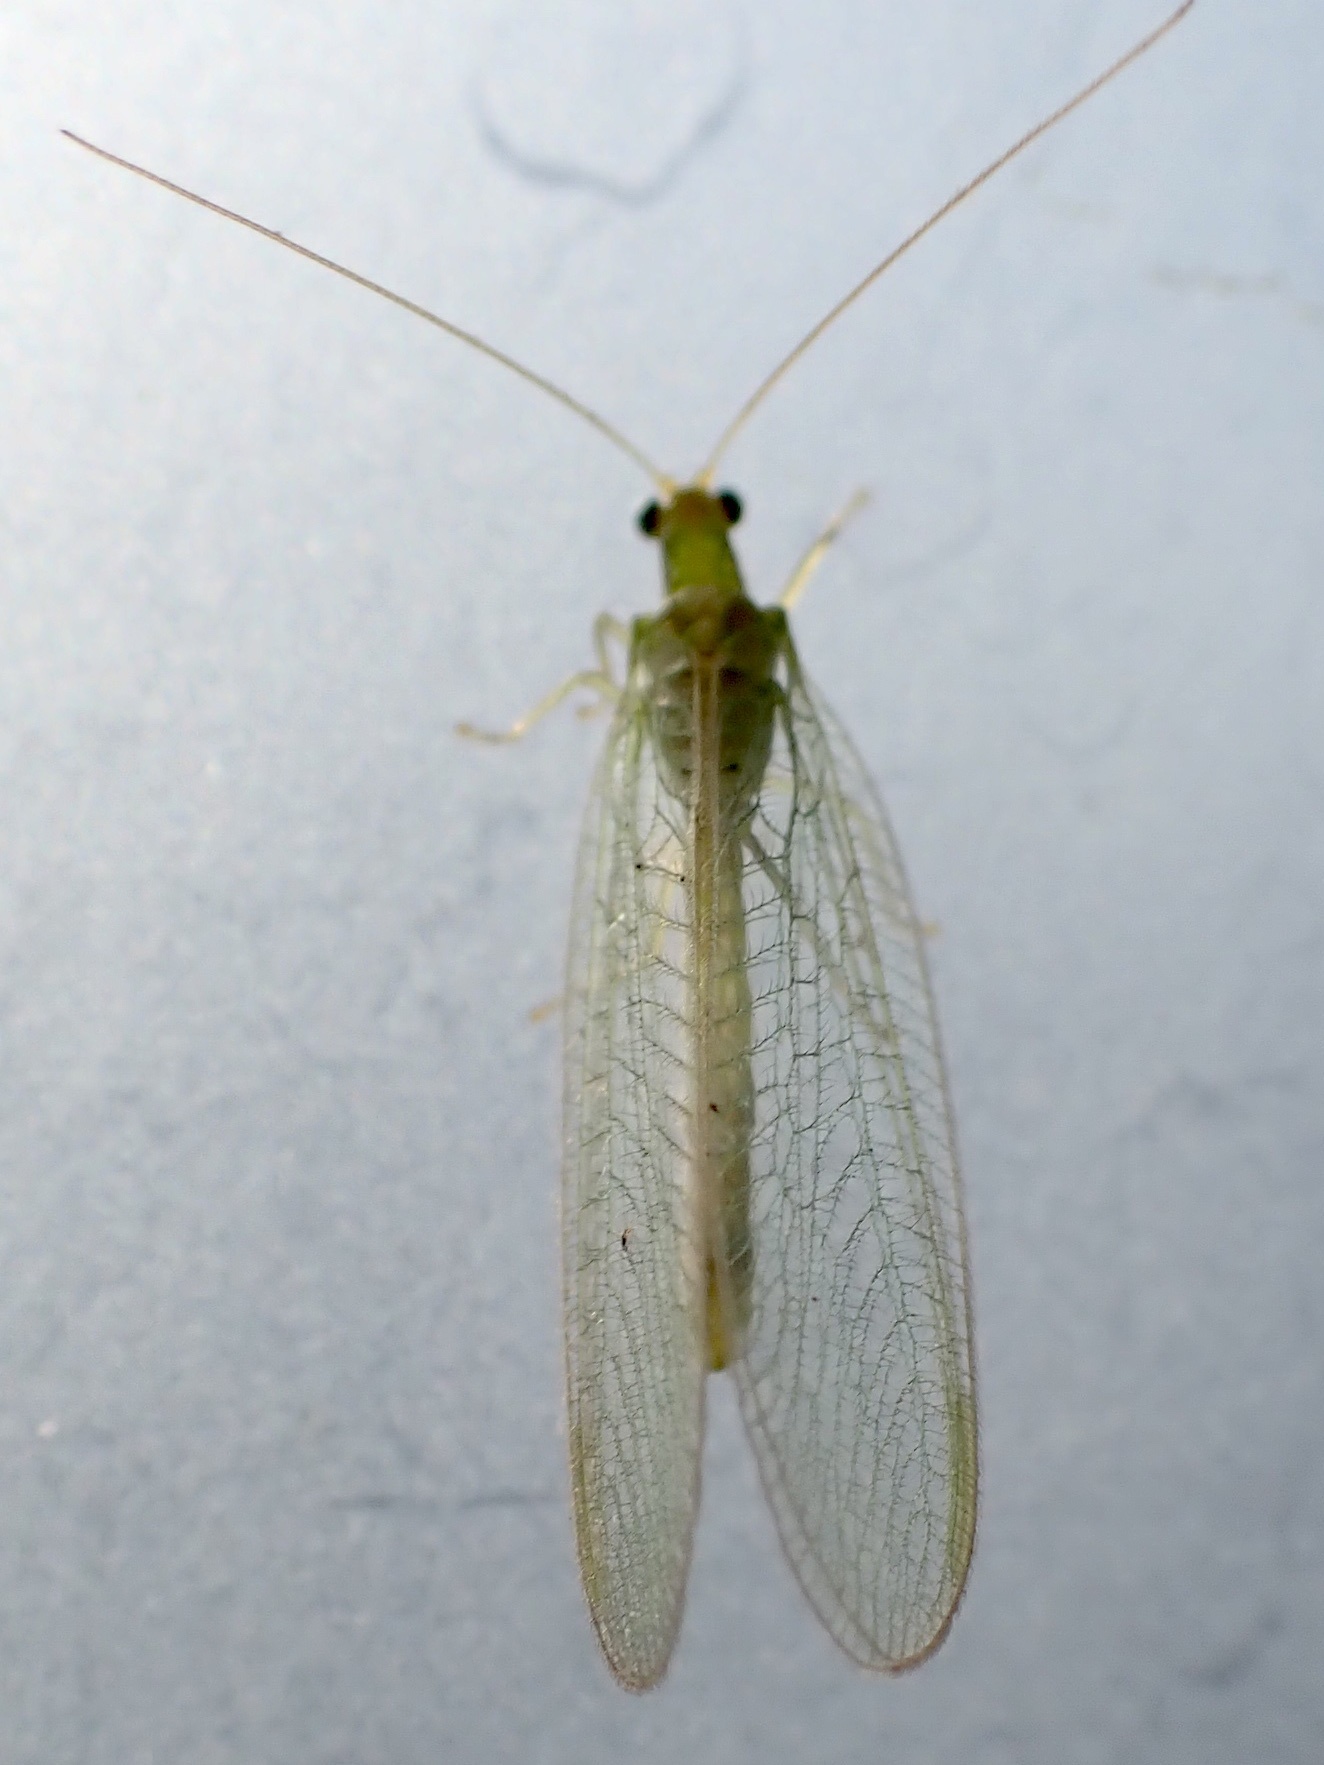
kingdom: Animalia
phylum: Arthropoda
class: Insecta
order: Neuroptera
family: Chrysopidae
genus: Chrysoperla
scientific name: Chrysoperla
